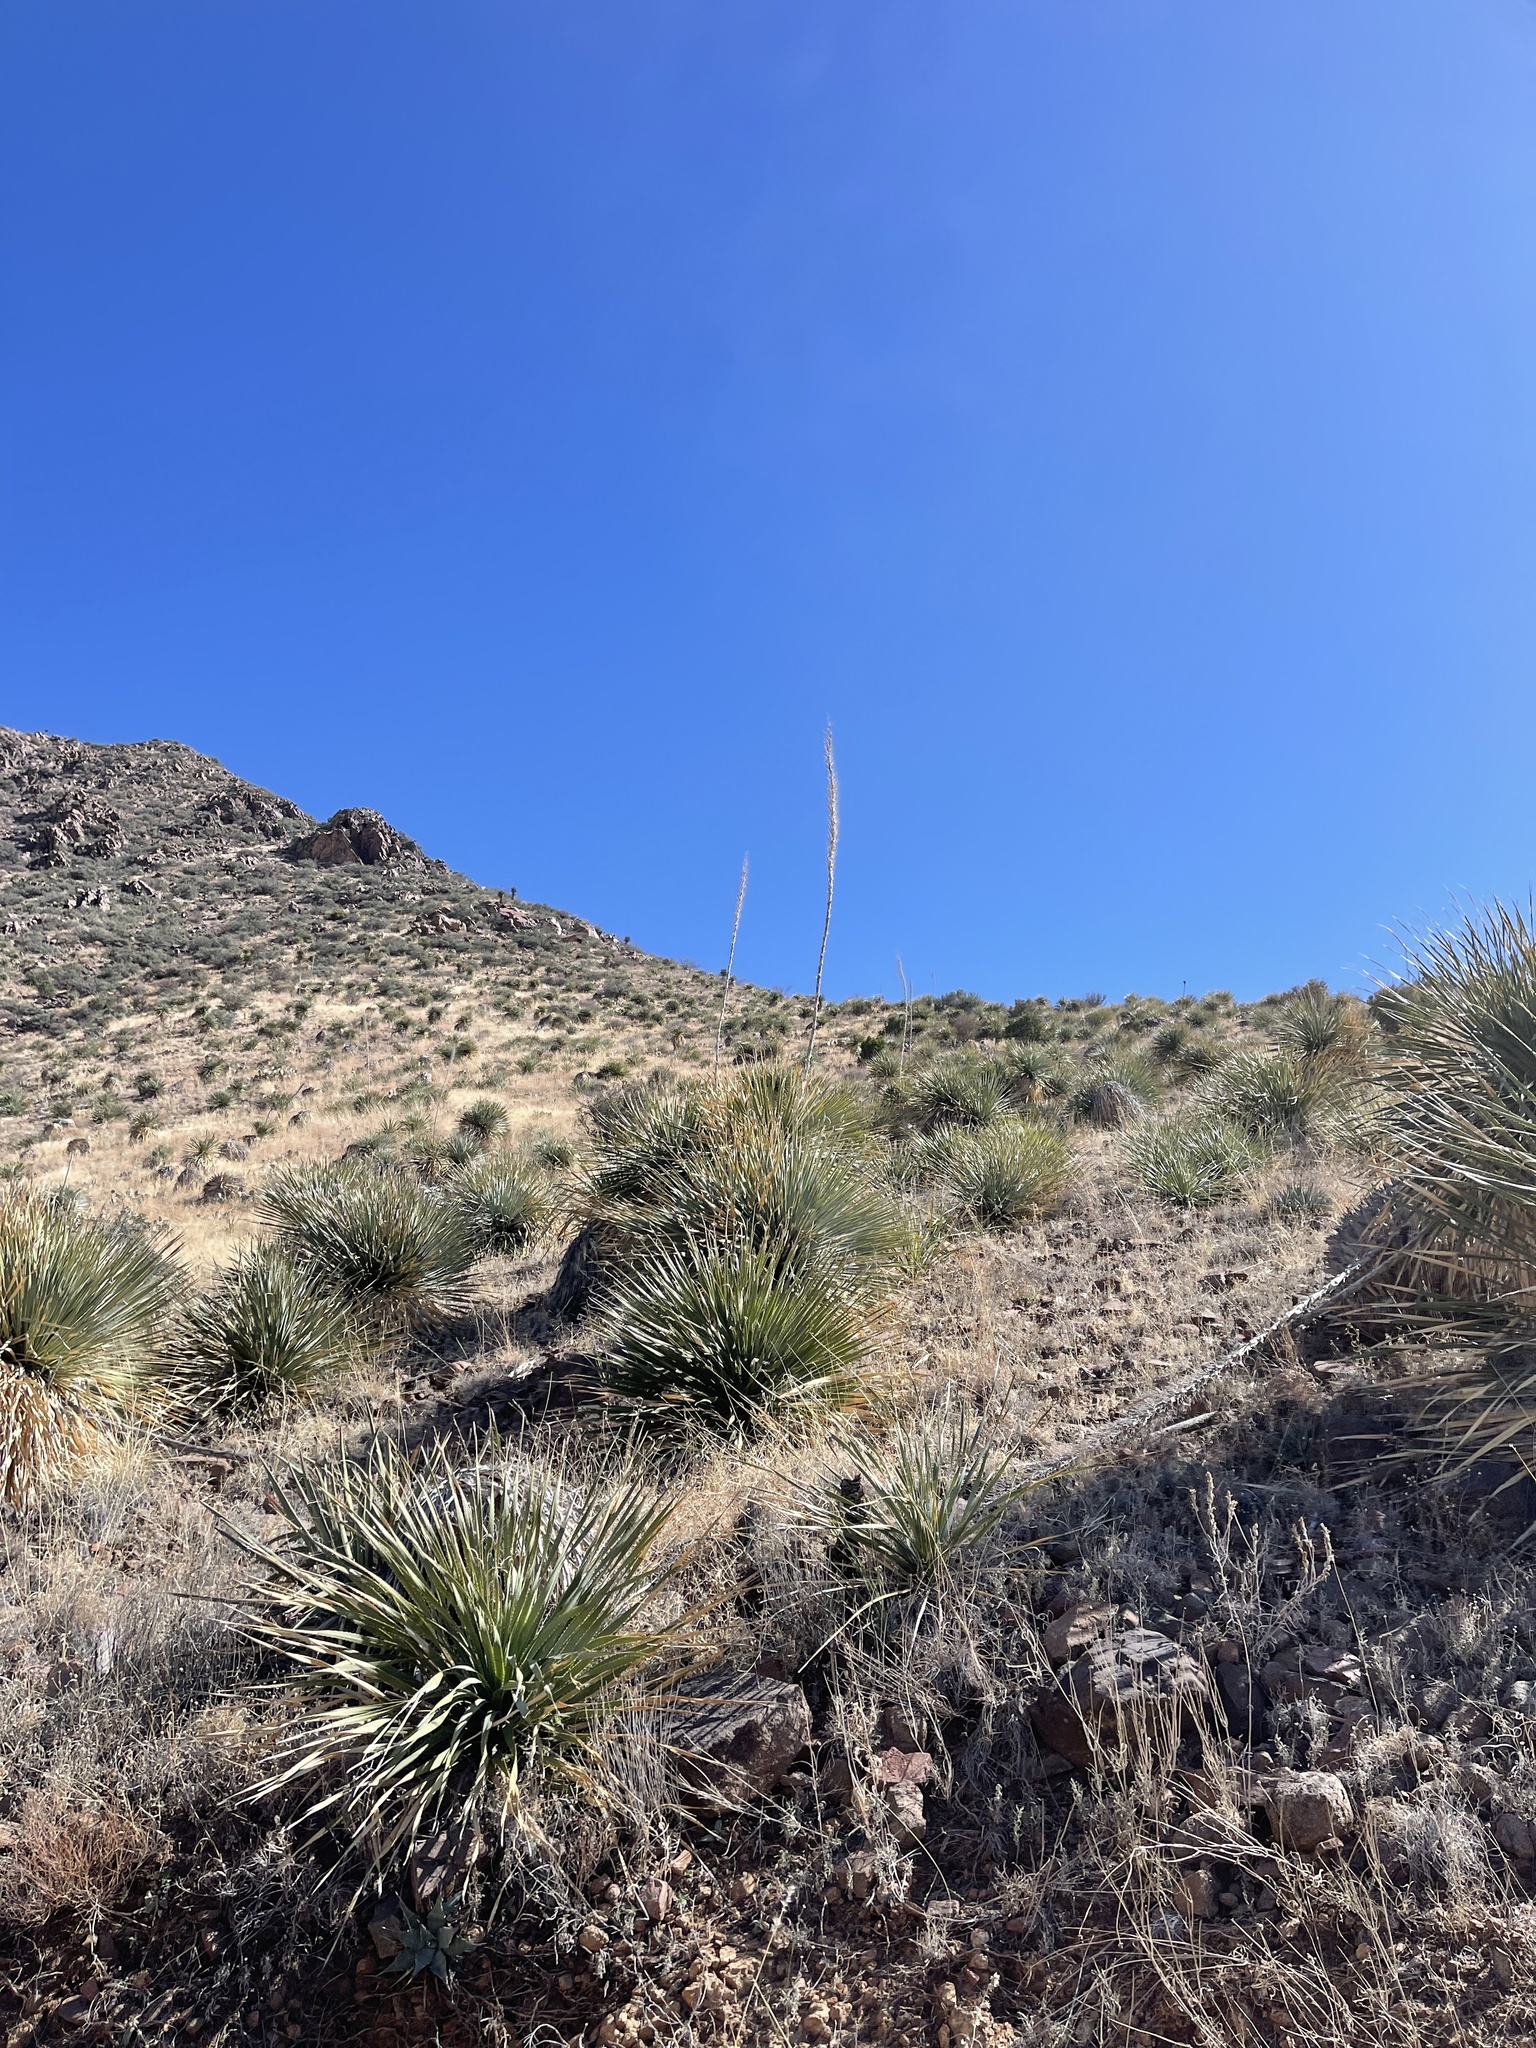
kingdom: Plantae
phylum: Tracheophyta
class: Liliopsida
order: Asparagales
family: Asparagaceae
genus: Dasylirion
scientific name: Dasylirion wheeleri
